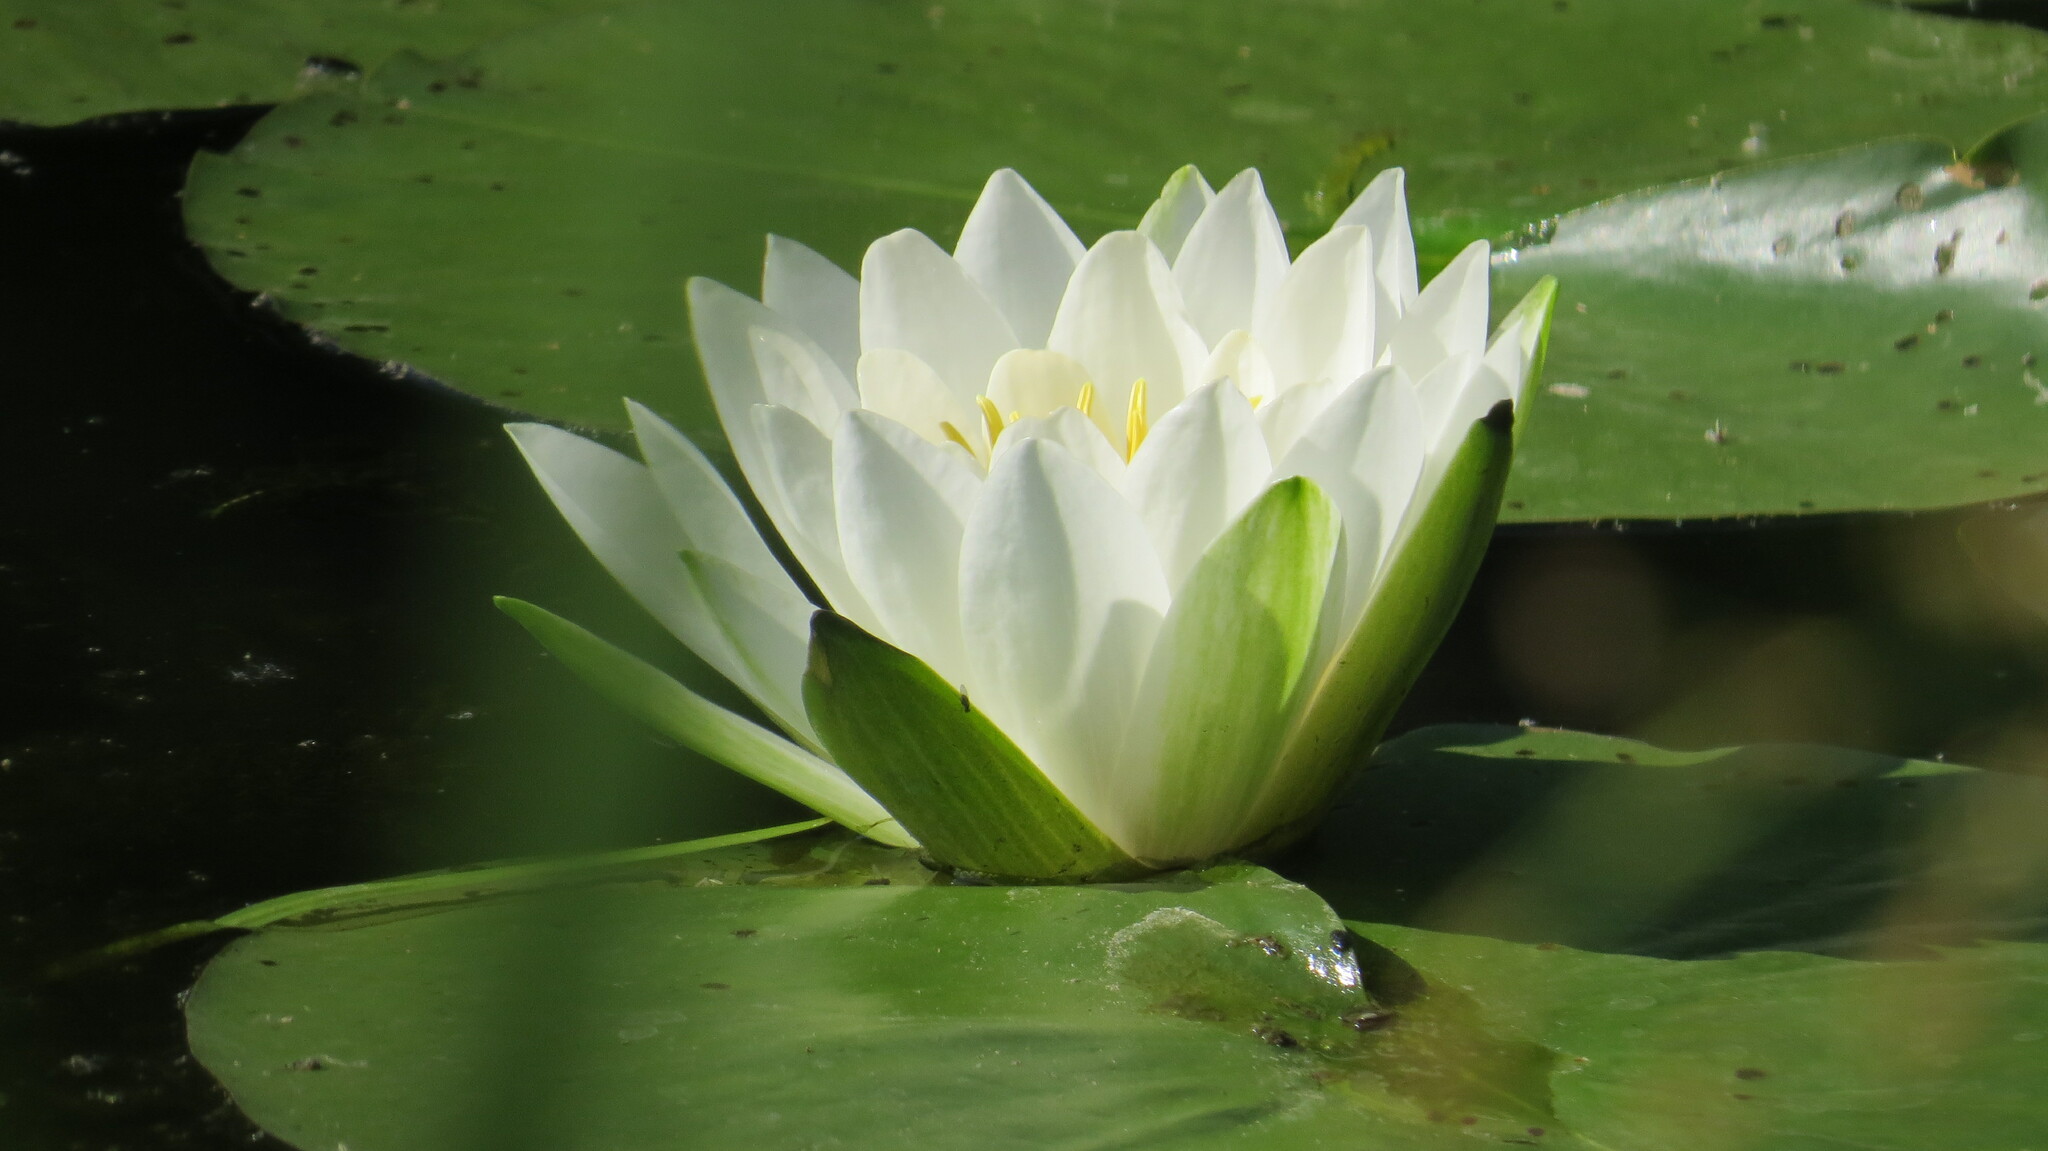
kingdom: Plantae
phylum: Tracheophyta
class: Magnoliopsida
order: Nymphaeales
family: Nymphaeaceae
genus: Nymphaea
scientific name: Nymphaea odorata
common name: Fragrant water-lily
